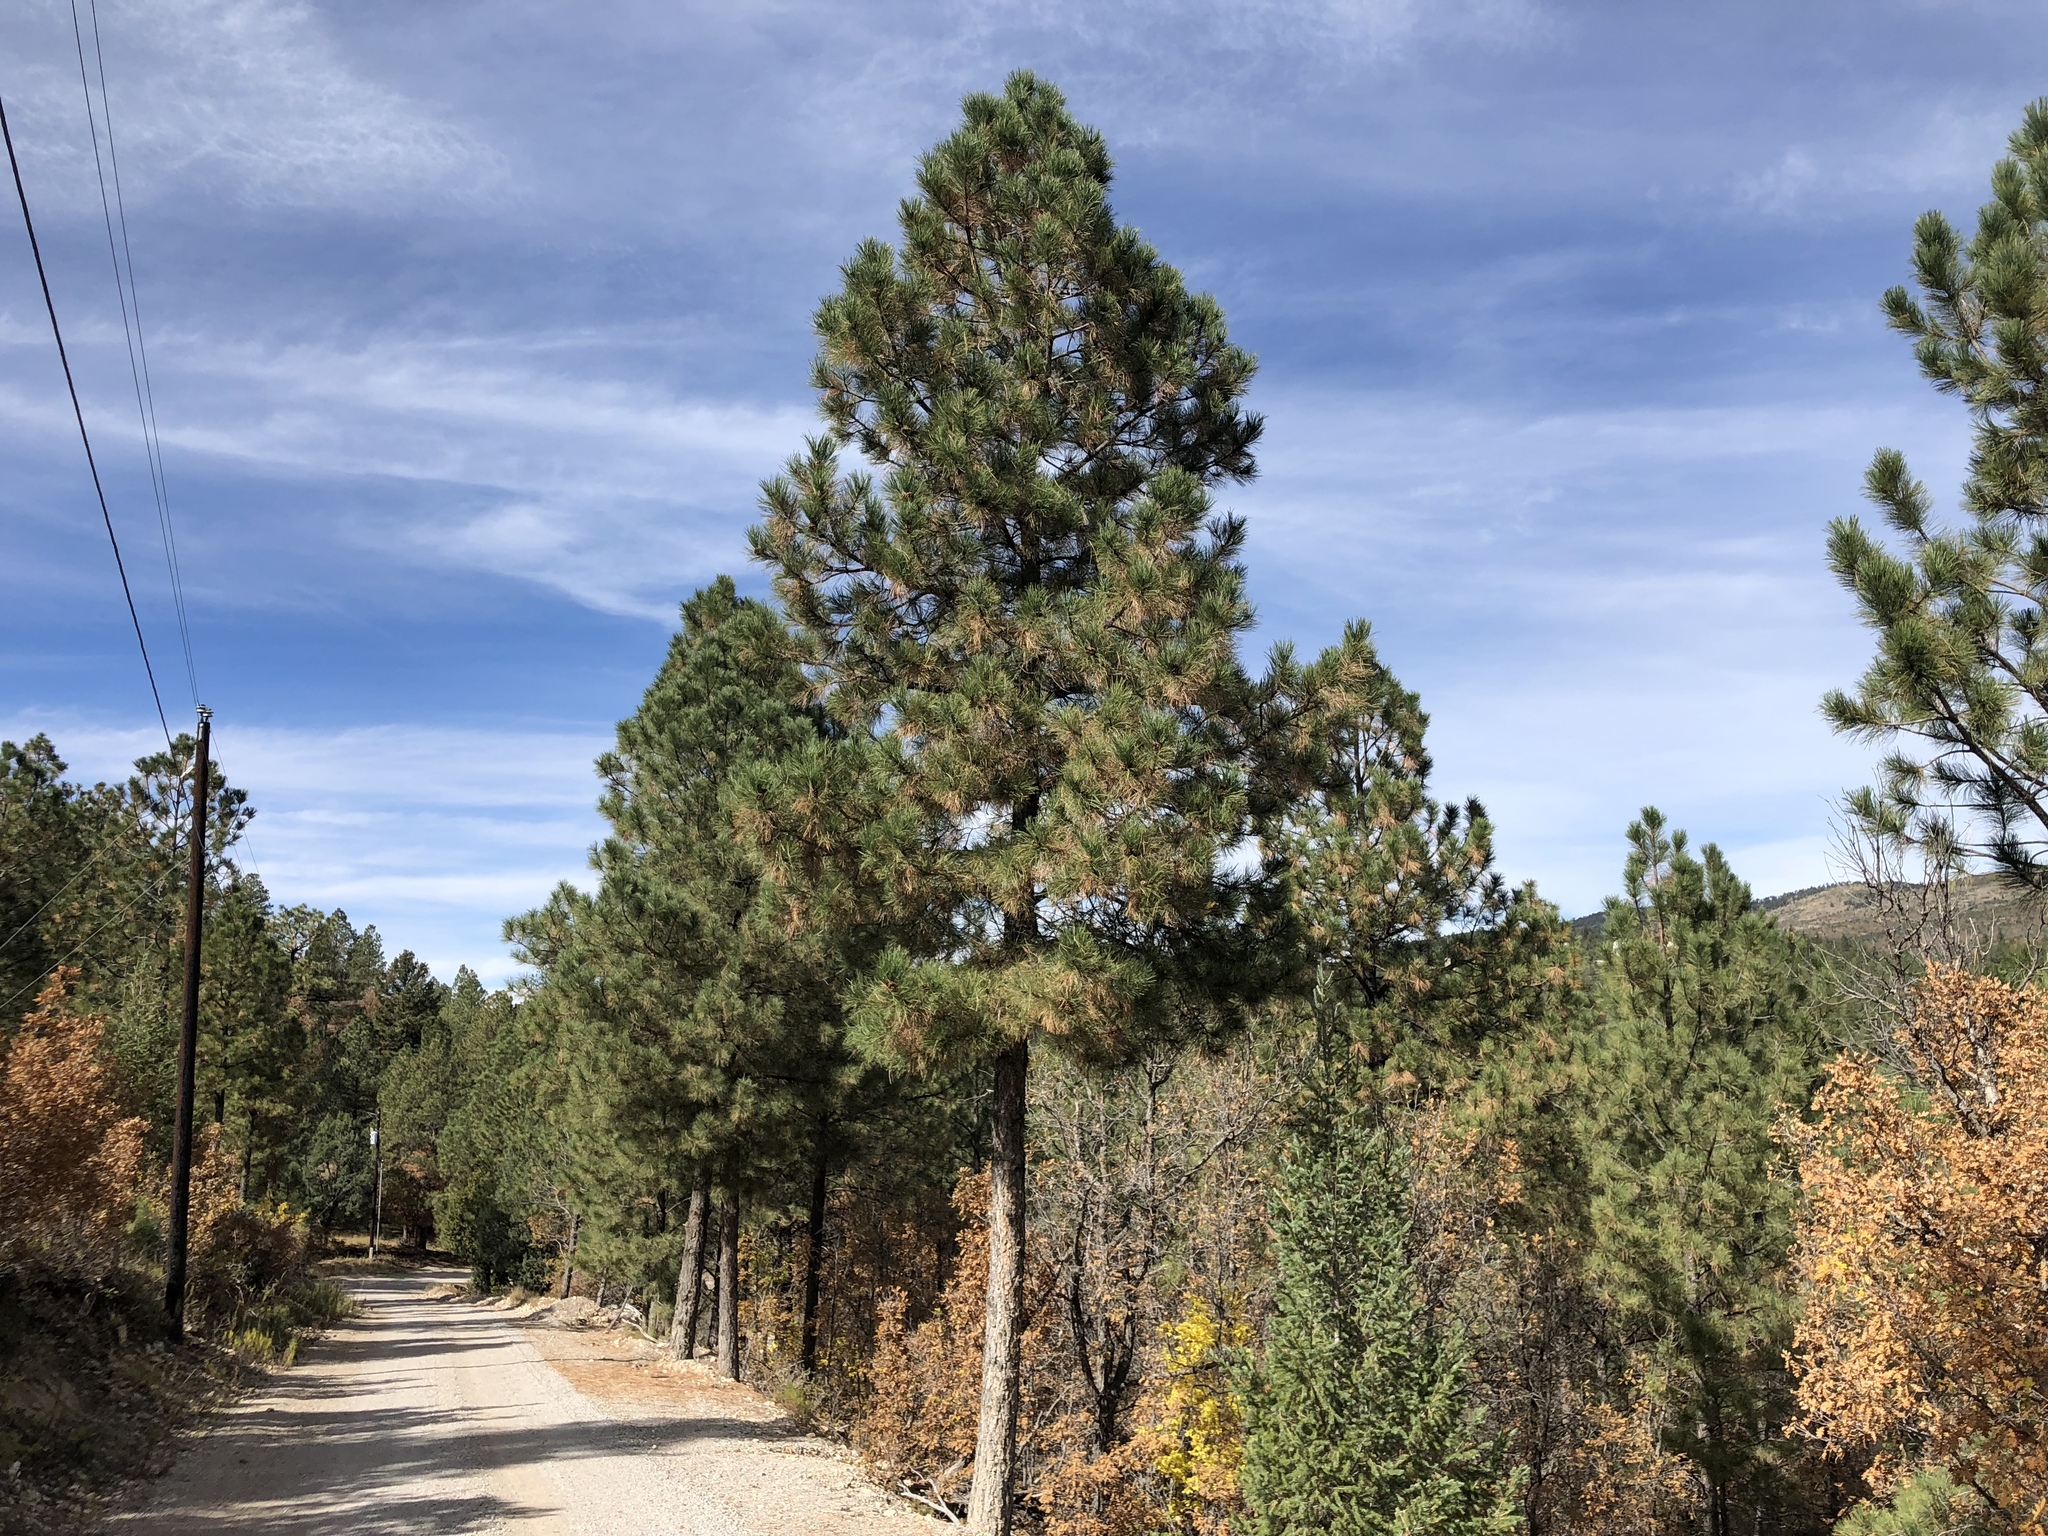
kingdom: Plantae
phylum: Tracheophyta
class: Pinopsida
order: Pinales
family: Pinaceae
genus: Pinus
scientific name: Pinus ponderosa
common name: Western yellow-pine
